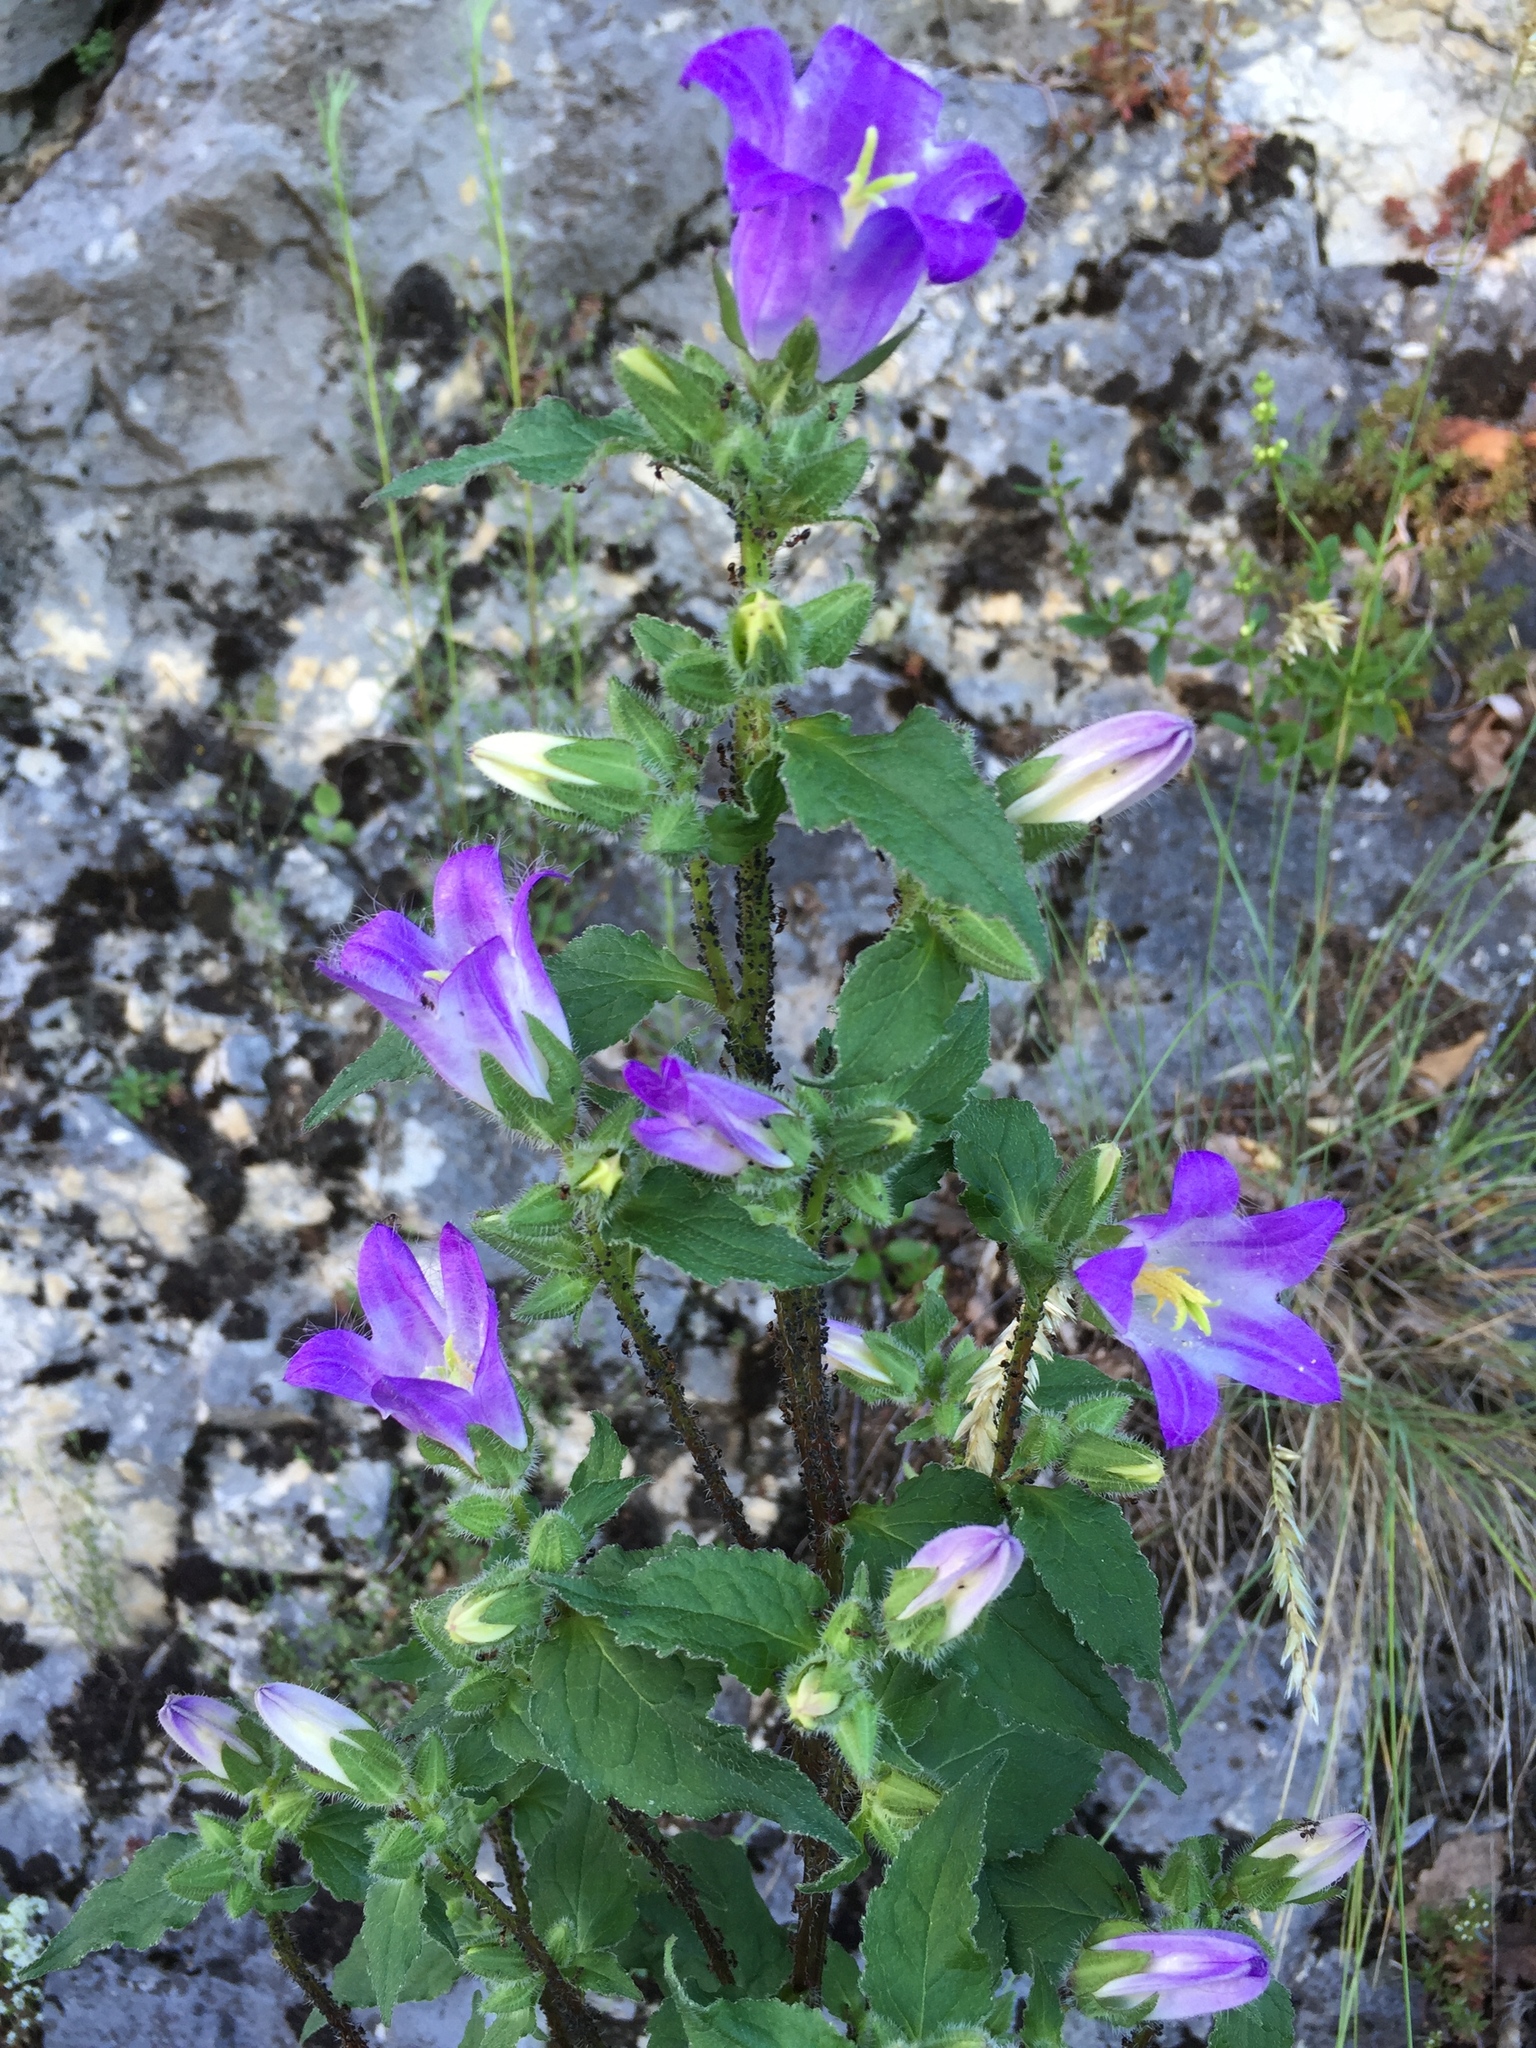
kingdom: Plantae
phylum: Tracheophyta
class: Magnoliopsida
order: Asterales
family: Campanulaceae
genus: Campanula
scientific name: Campanula trachelium
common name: Nettle-leaved bellflower
